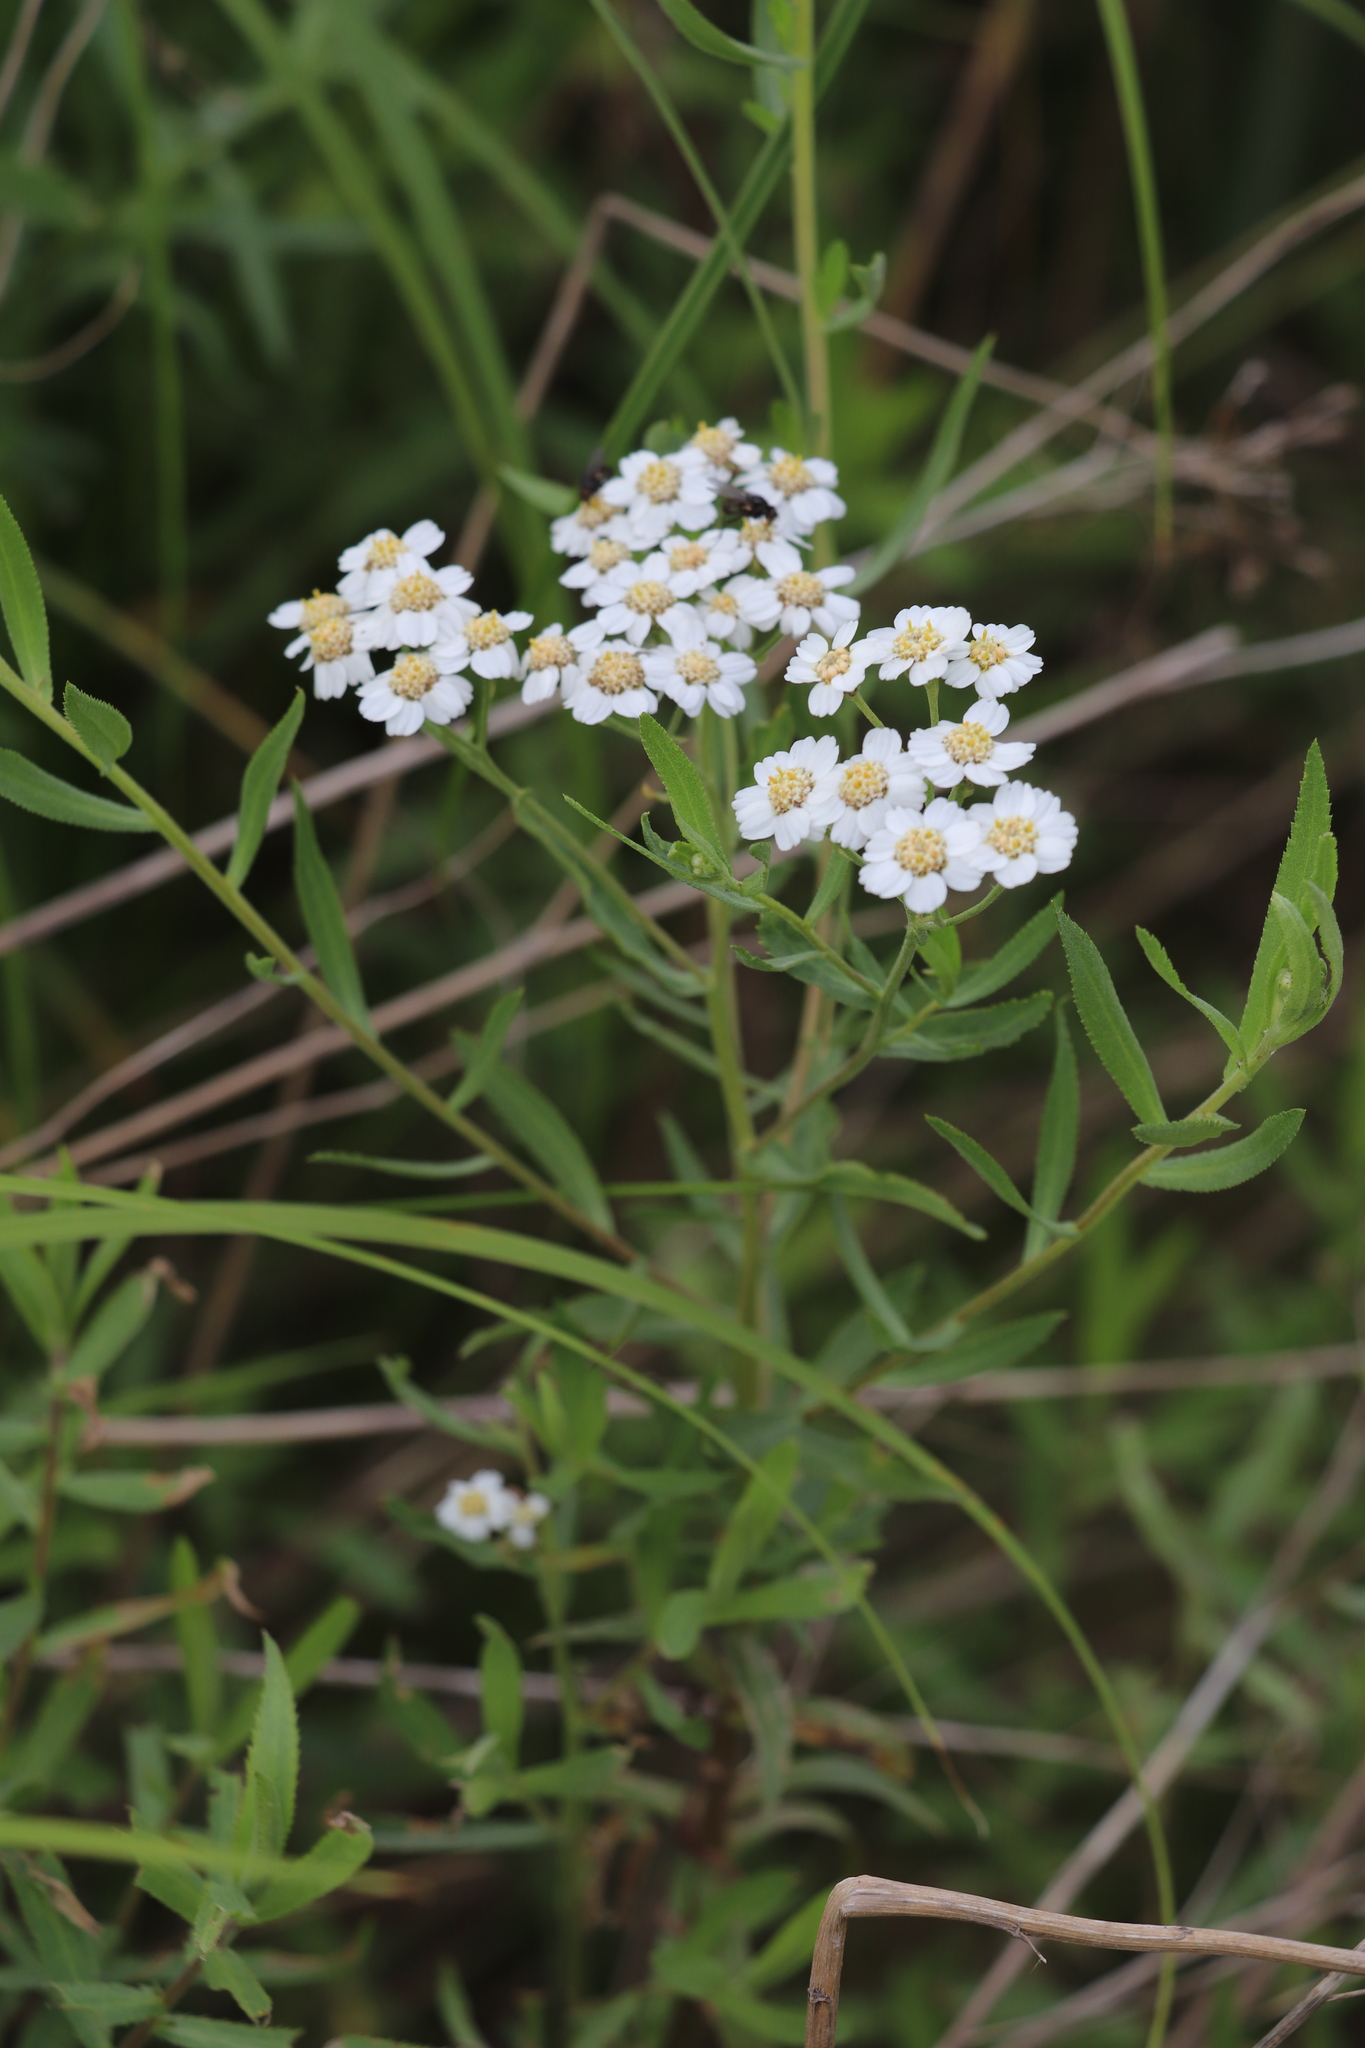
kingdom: Plantae
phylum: Tracheophyta
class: Magnoliopsida
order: Asterales
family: Asteraceae
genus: Achillea
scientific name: Achillea salicifolia
